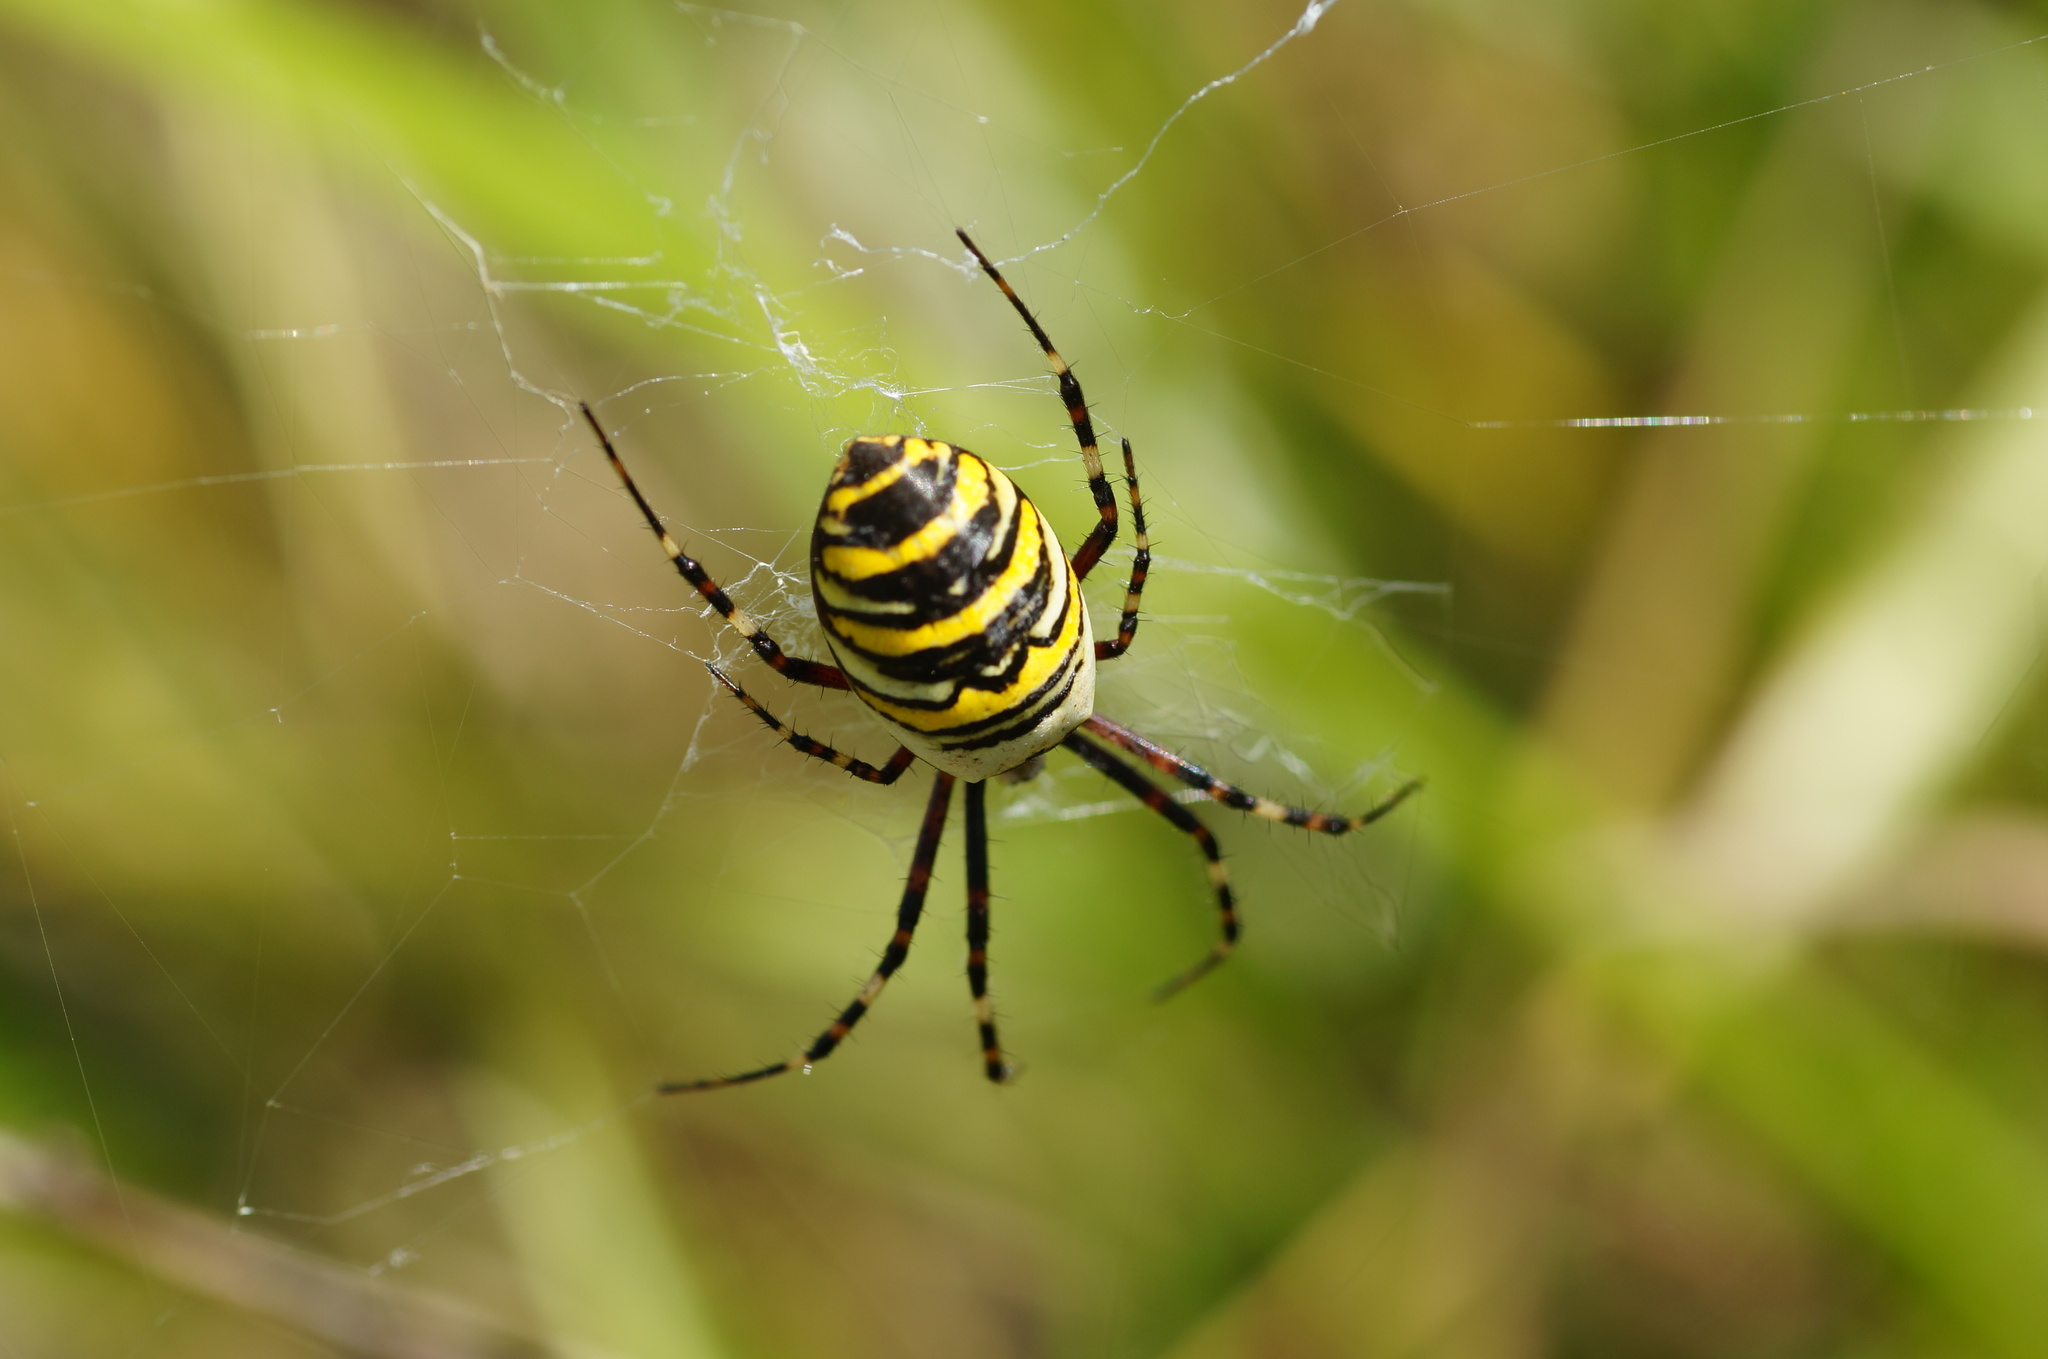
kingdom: Animalia
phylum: Arthropoda
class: Arachnida
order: Araneae
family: Araneidae
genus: Argiope
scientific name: Argiope bruennichi
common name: Wasp spider
